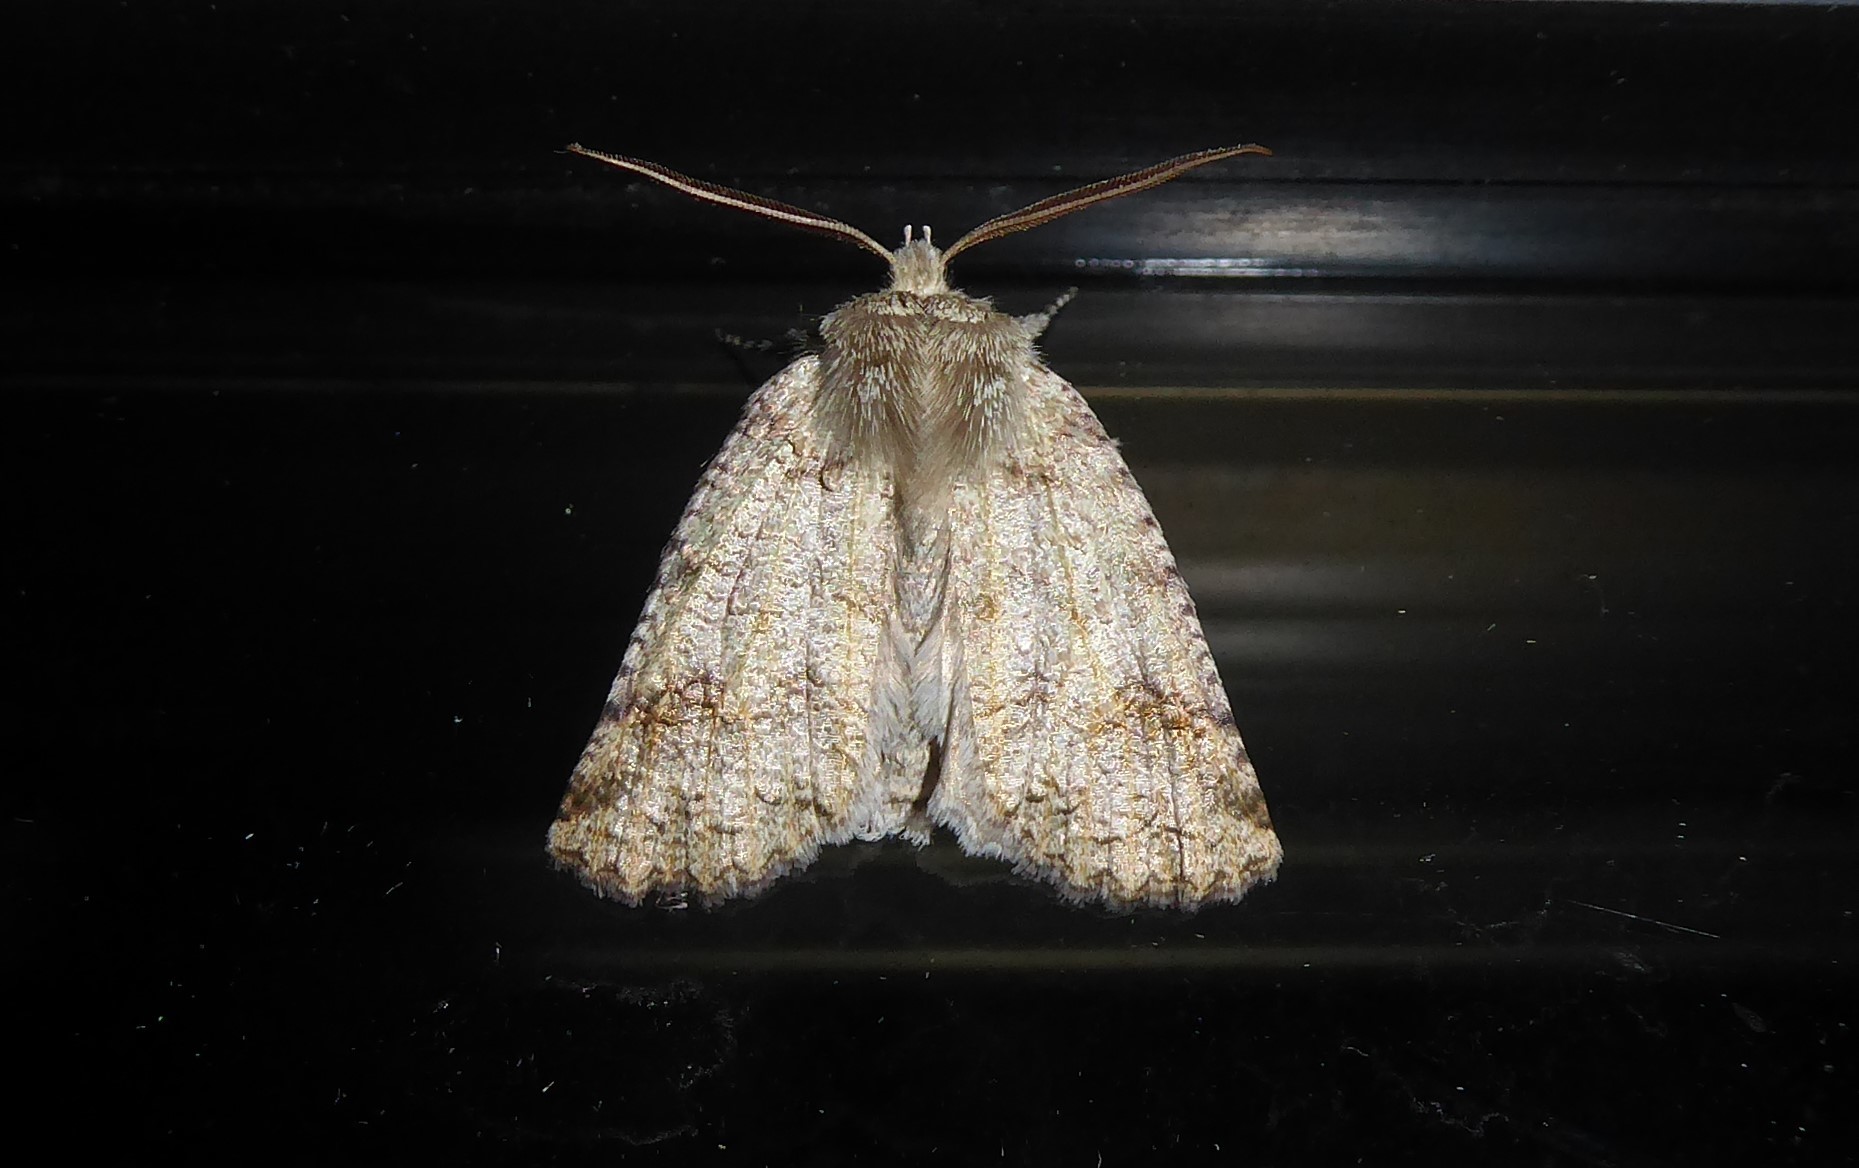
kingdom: Animalia
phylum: Arthropoda
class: Insecta
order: Lepidoptera
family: Geometridae
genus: Declana
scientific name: Declana floccosa
